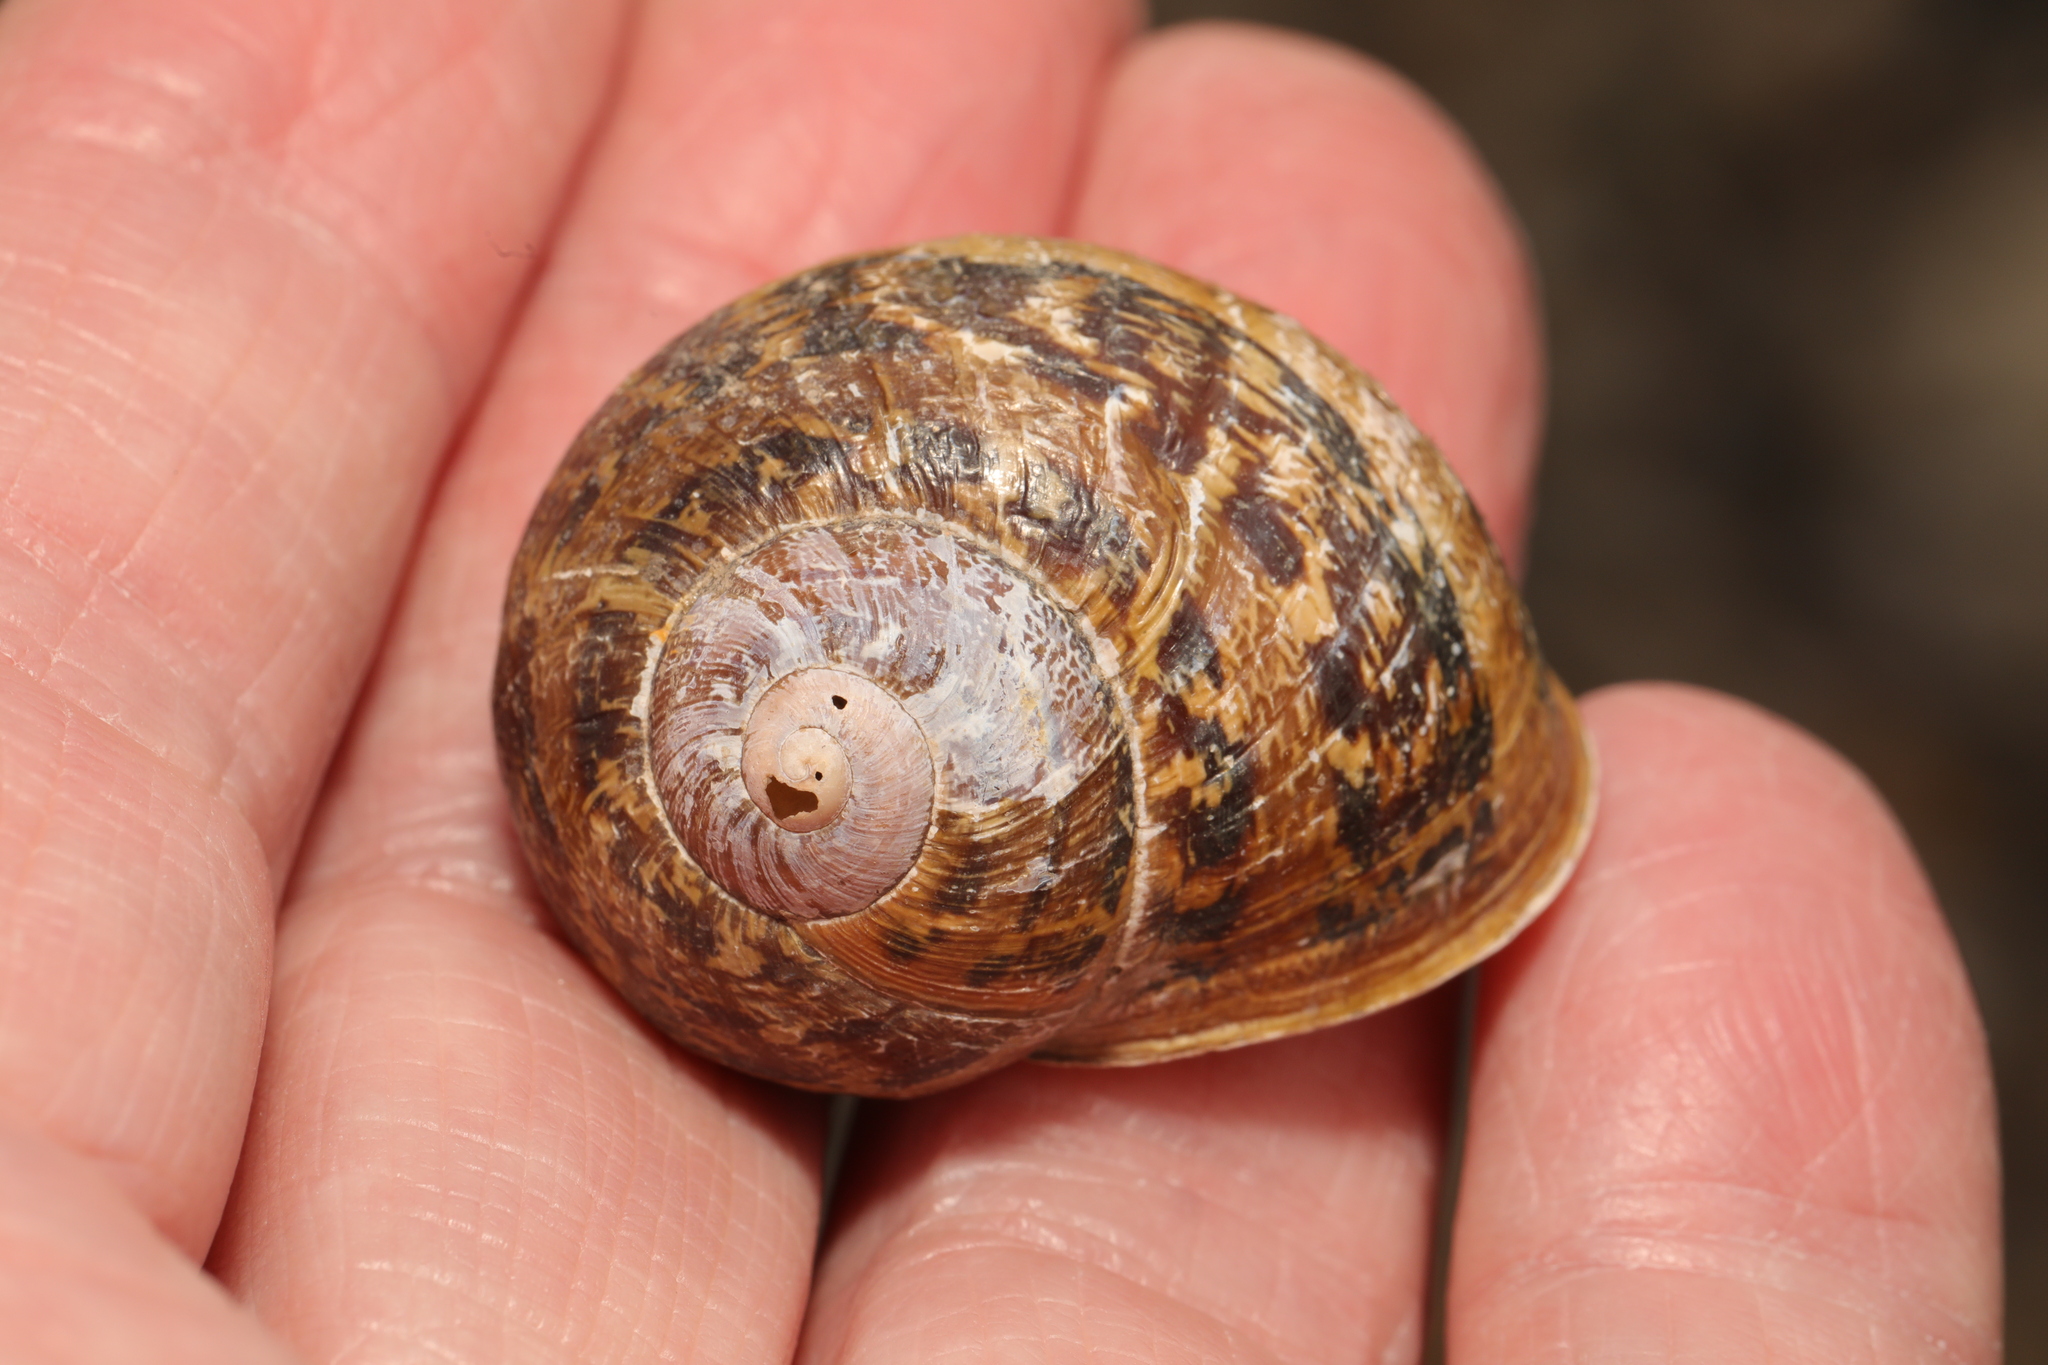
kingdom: Animalia
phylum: Mollusca
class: Gastropoda
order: Stylommatophora
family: Helicidae
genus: Cornu
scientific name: Cornu aspersum
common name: Brown garden snail
